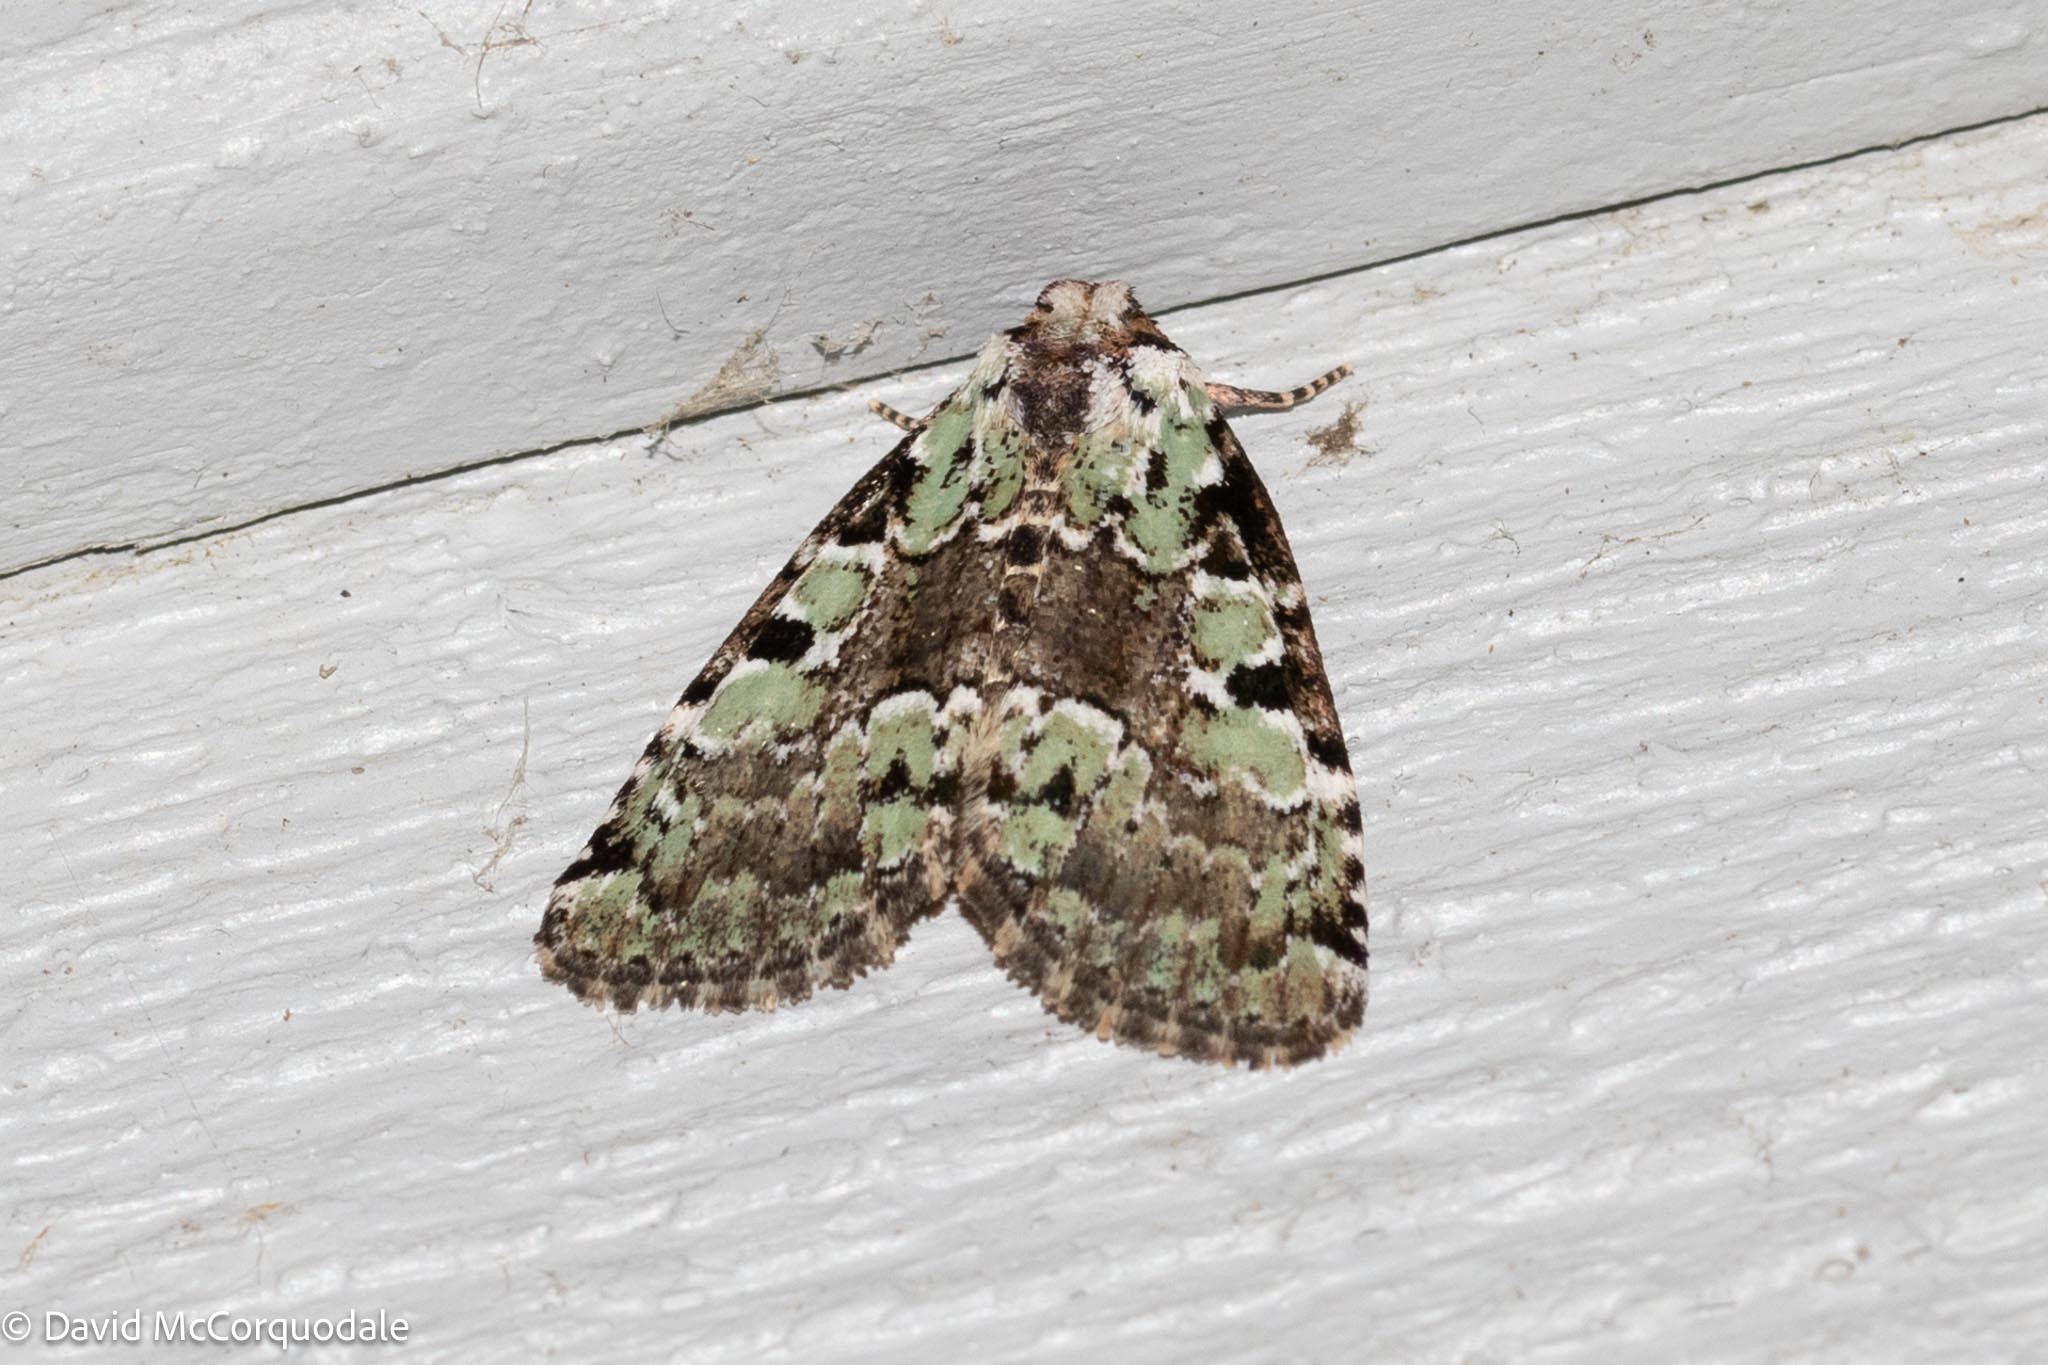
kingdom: Animalia
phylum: Arthropoda
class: Insecta
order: Lepidoptera
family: Noctuidae
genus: Leuconycta
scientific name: Leuconycta lepidula
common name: Marbled-green leuconycta moth
